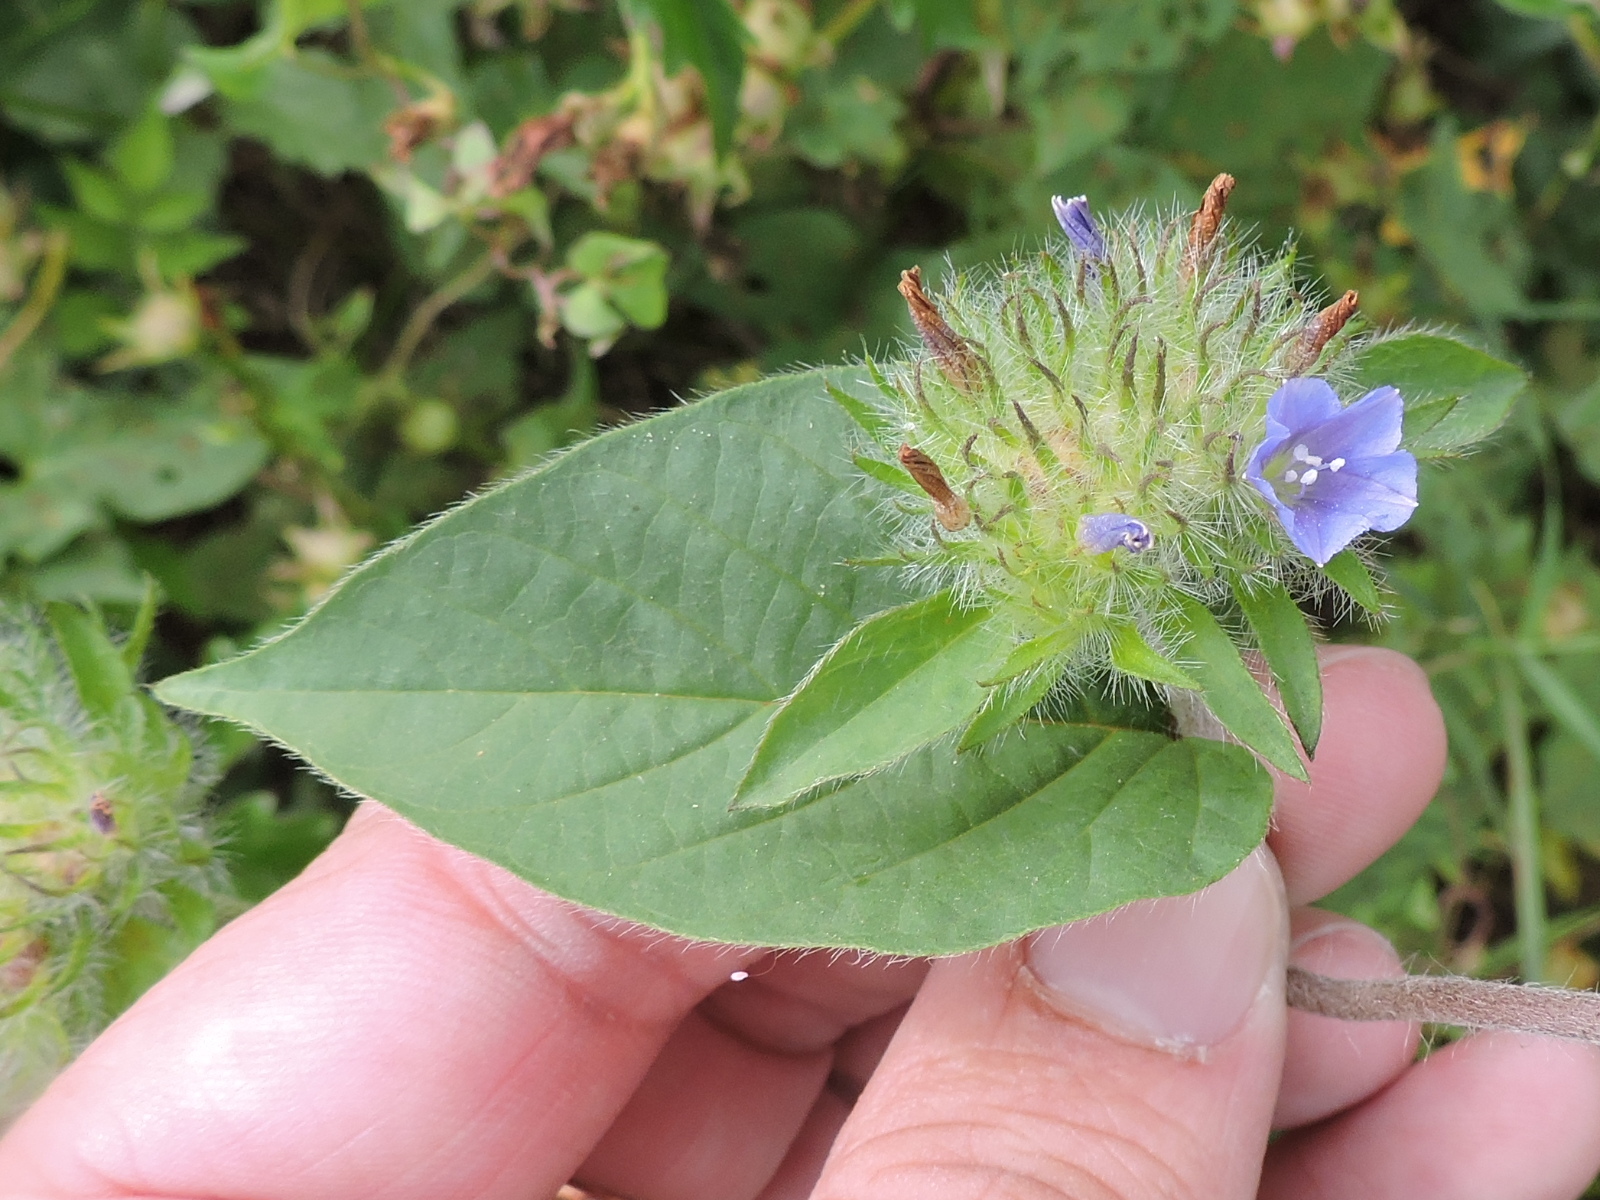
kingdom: Plantae
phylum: Tracheophyta
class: Magnoliopsida
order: Solanales
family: Convolvulaceae
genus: Jacquemontia
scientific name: Jacquemontia tamnifolia
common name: Hairy clustervine
